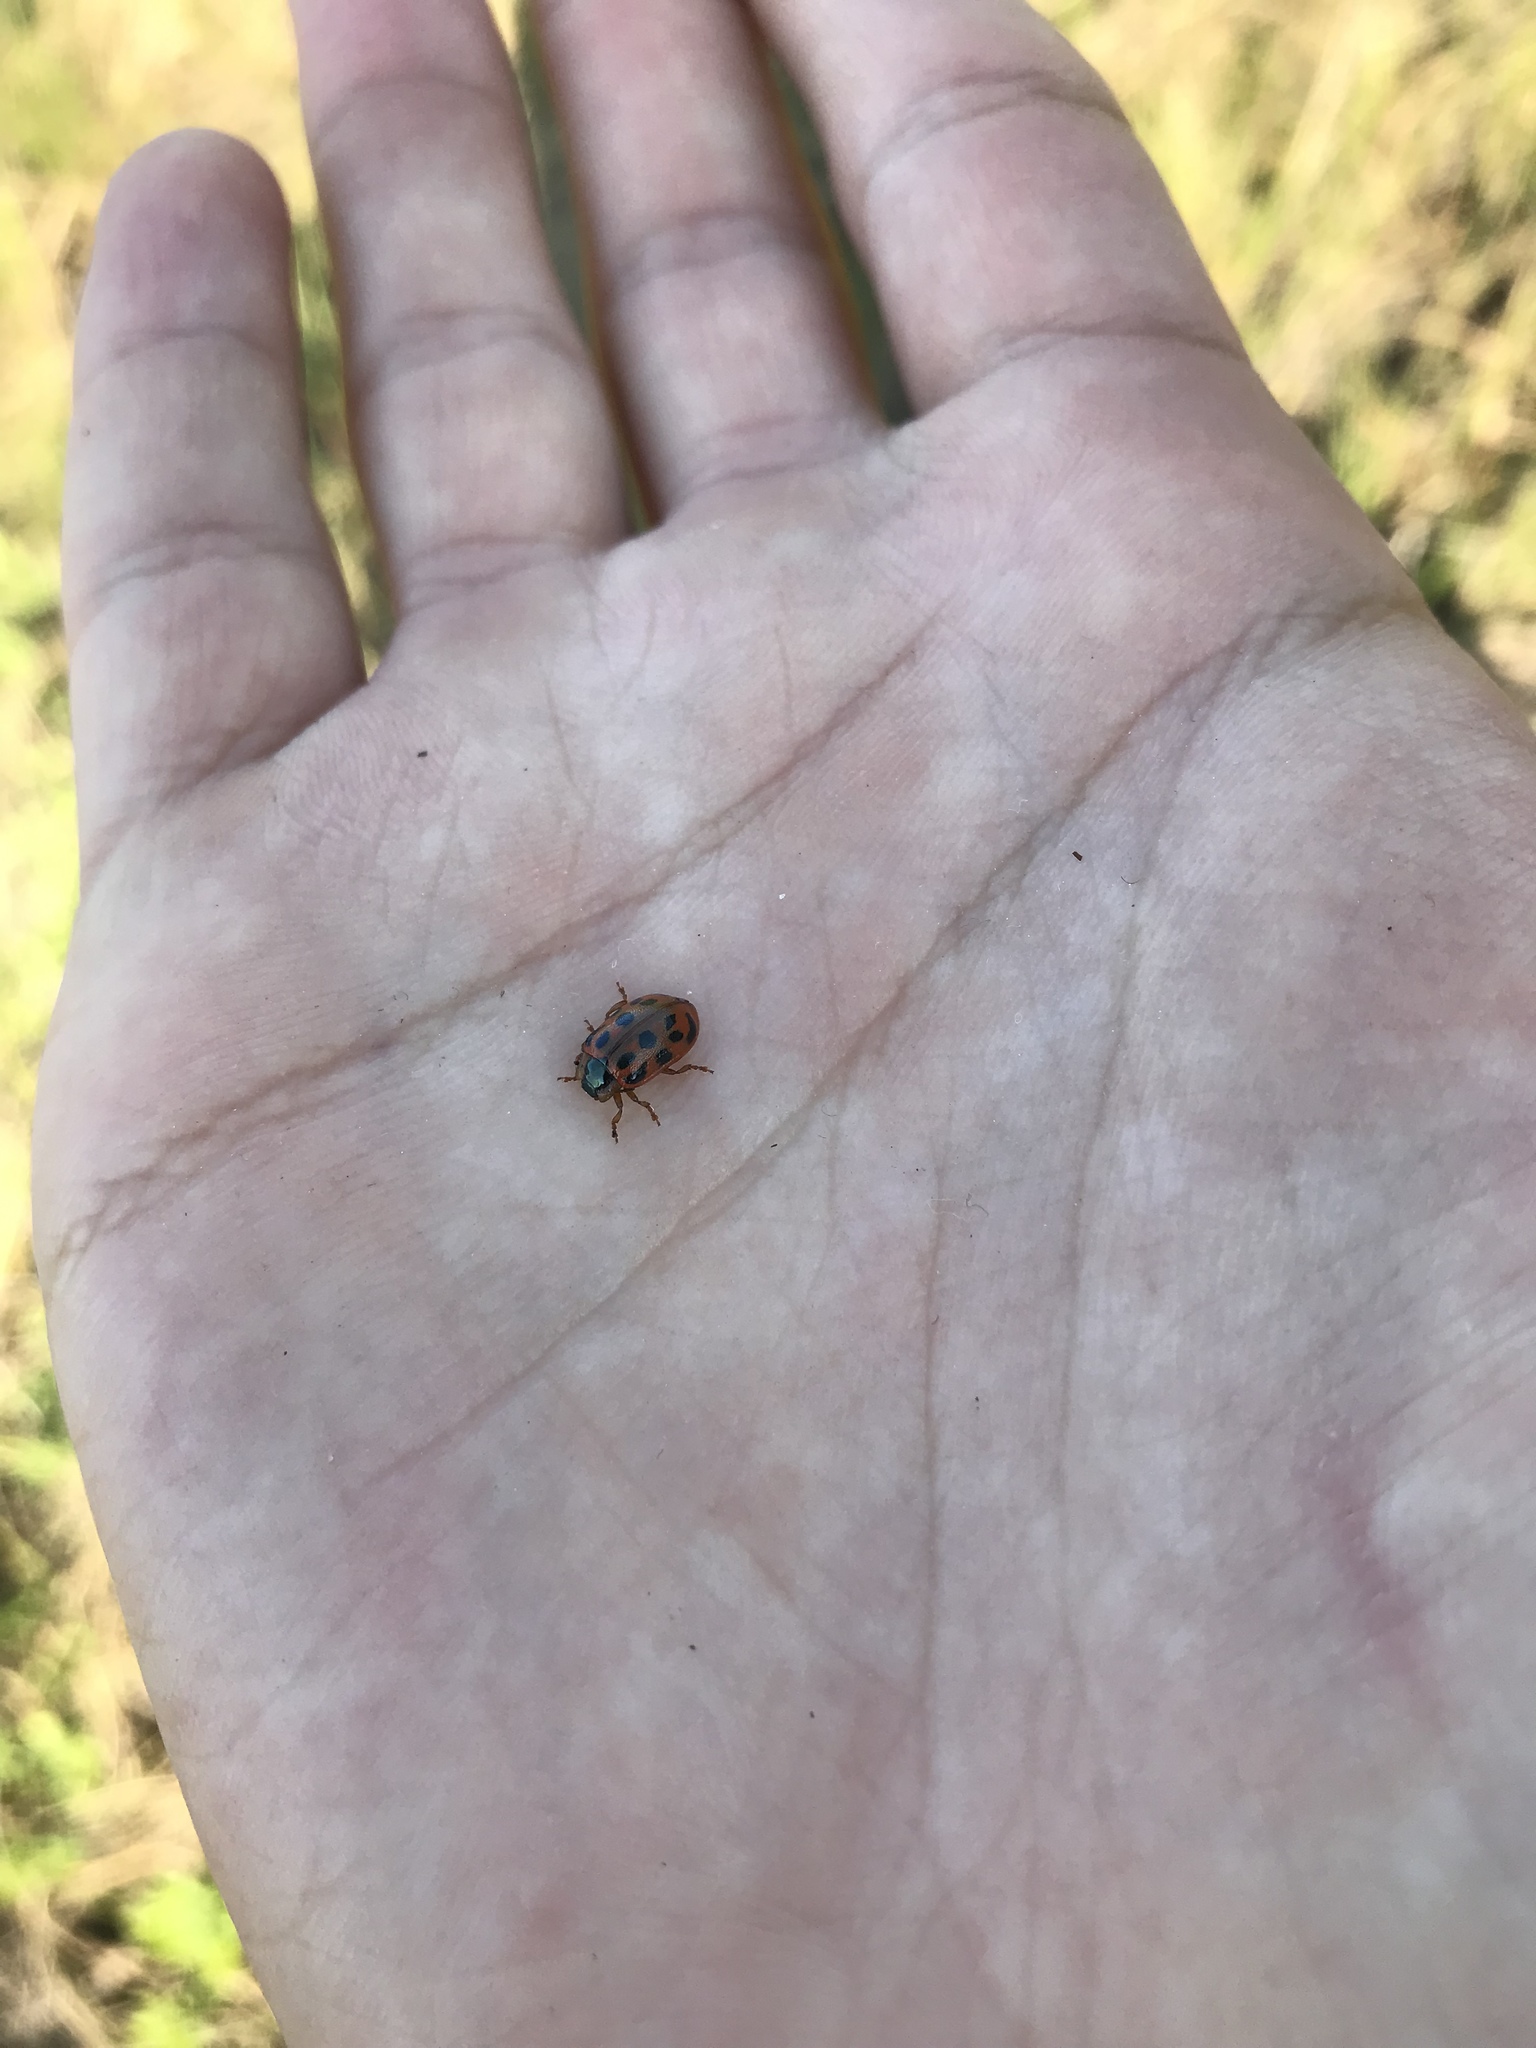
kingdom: Animalia
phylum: Arthropoda
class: Insecta
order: Coleoptera
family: Chrysomelidae
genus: Chrysomela
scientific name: Chrysomela mainensis
